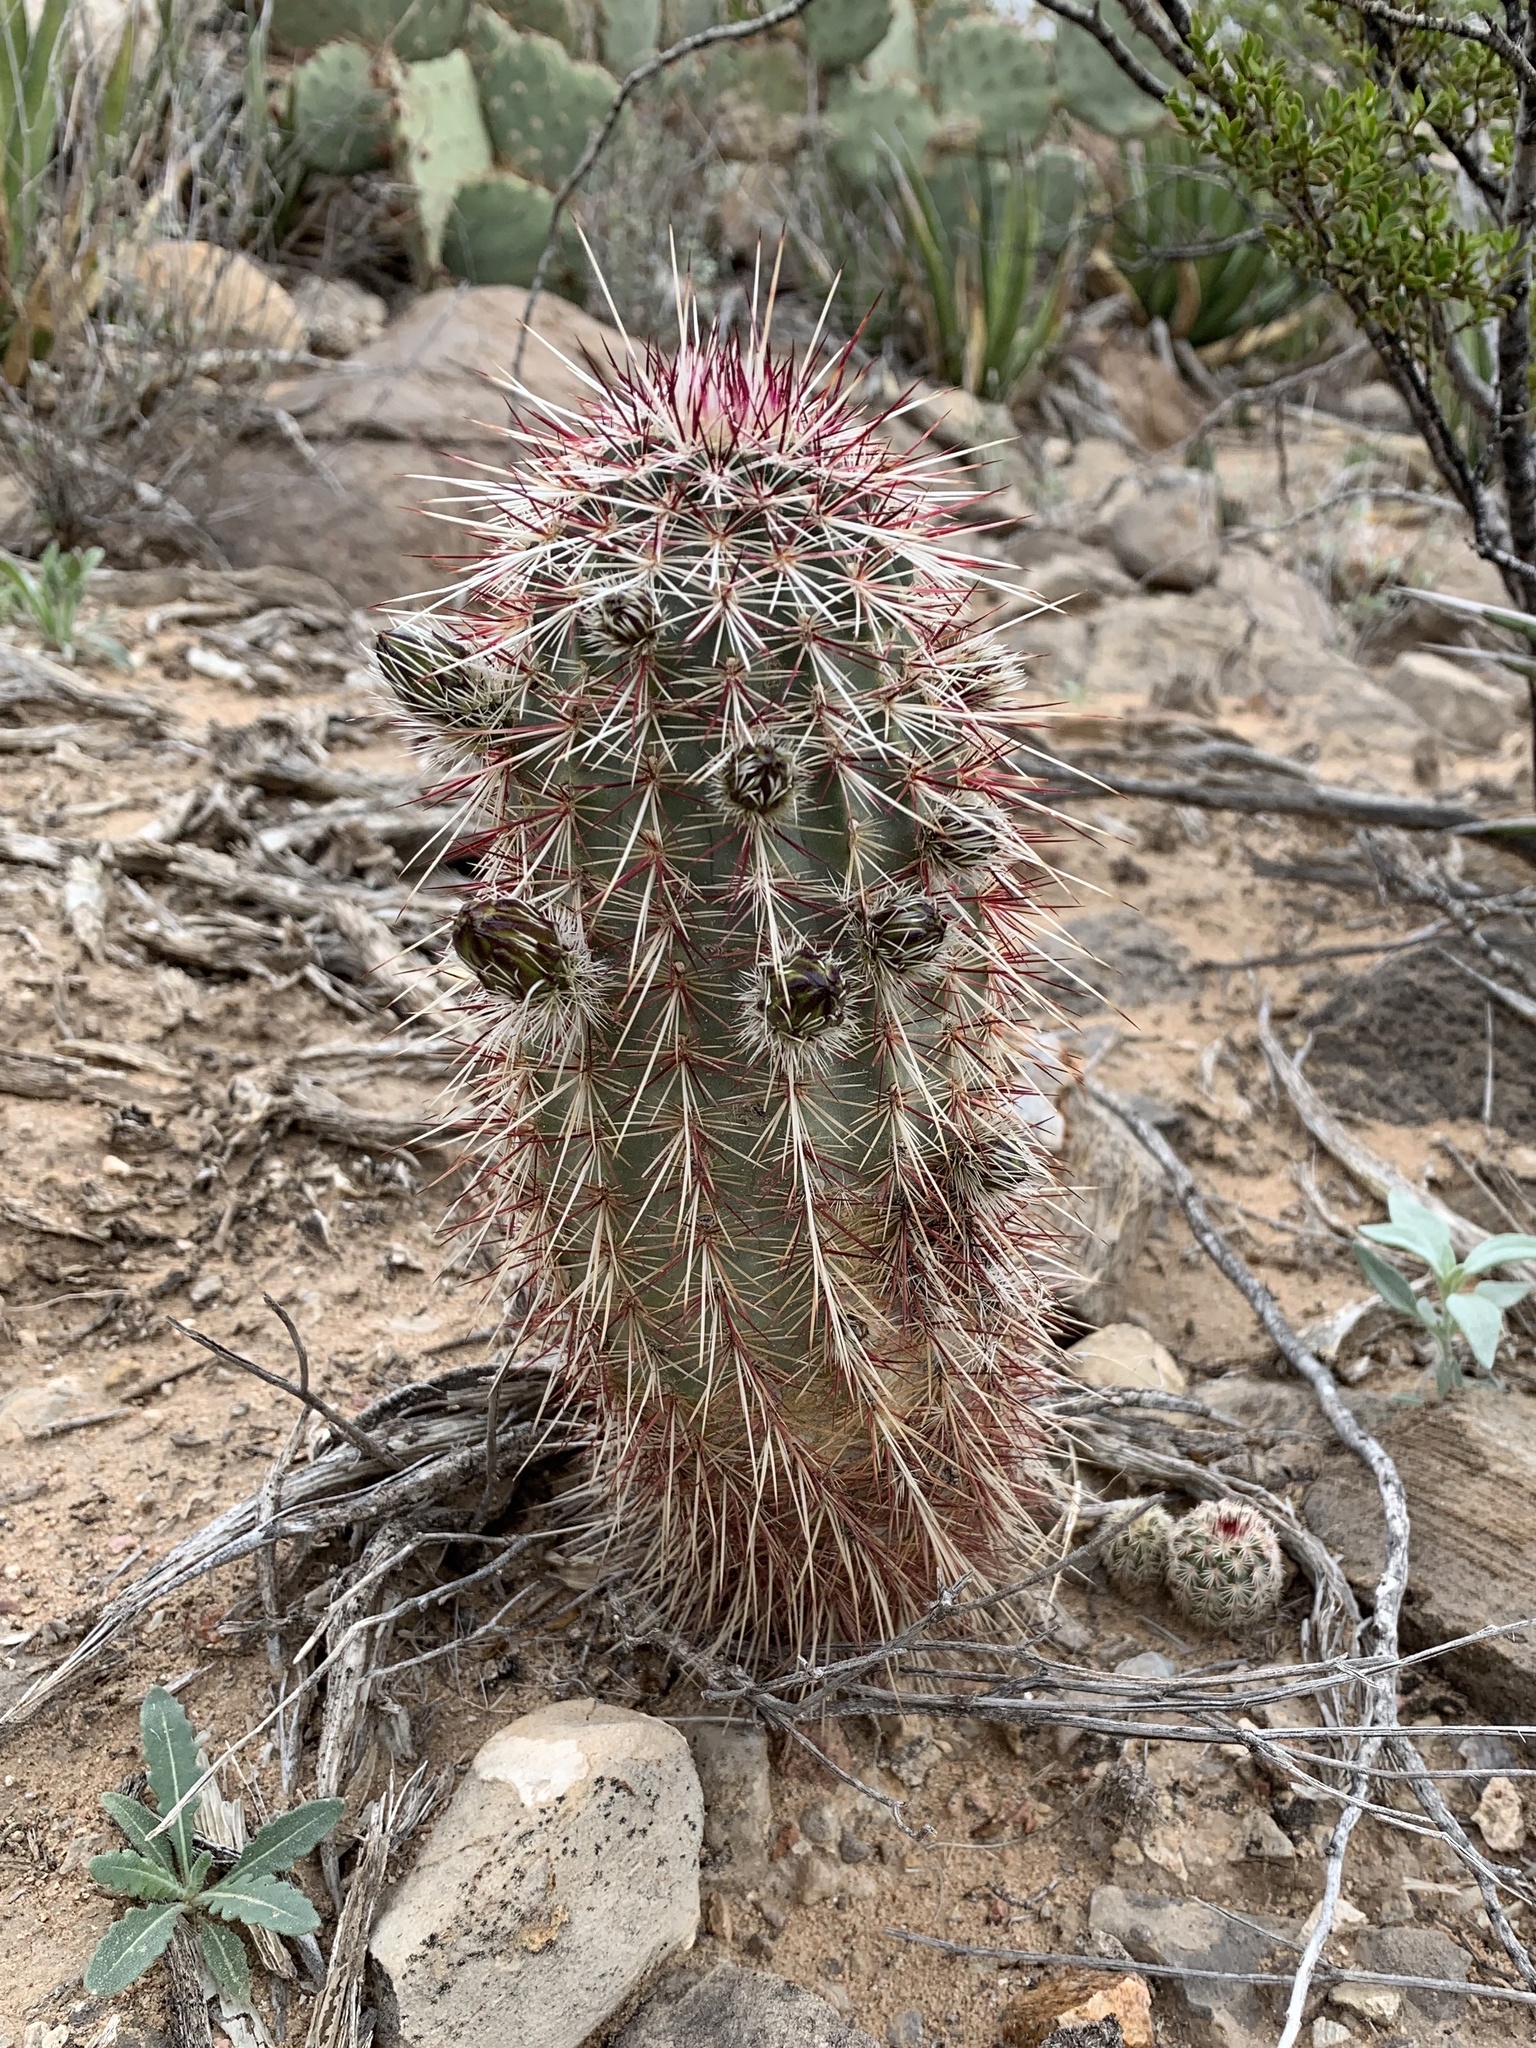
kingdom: Plantae
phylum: Tracheophyta
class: Magnoliopsida
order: Caryophyllales
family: Cactaceae
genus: Echinocereus
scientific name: Echinocereus viridiflorus
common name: Nylon hedgehog cactus
